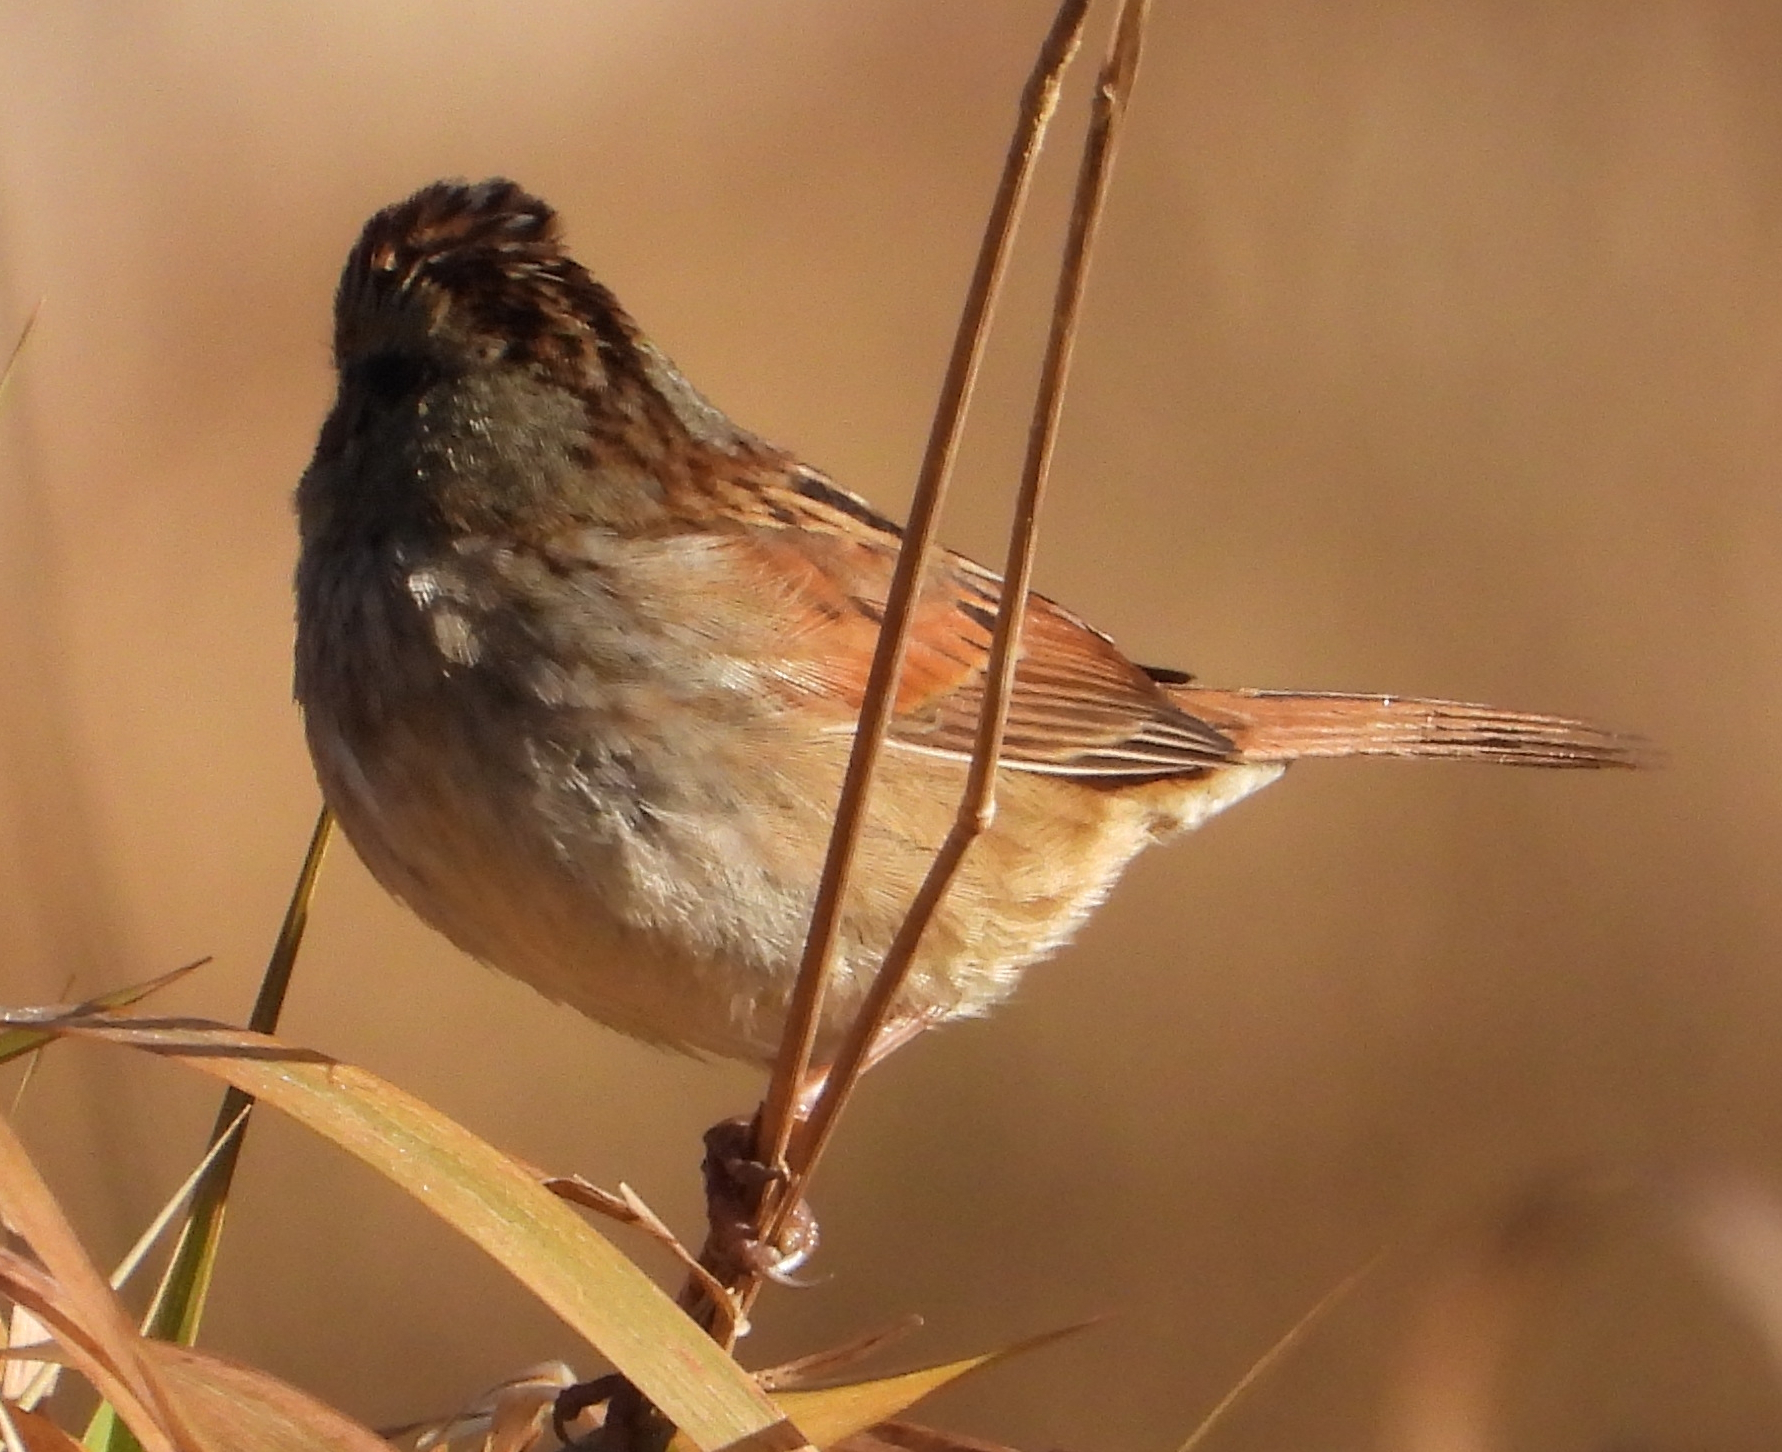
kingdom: Animalia
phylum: Chordata
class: Aves
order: Passeriformes
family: Passerellidae
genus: Melospiza
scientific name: Melospiza georgiana
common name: Swamp sparrow
